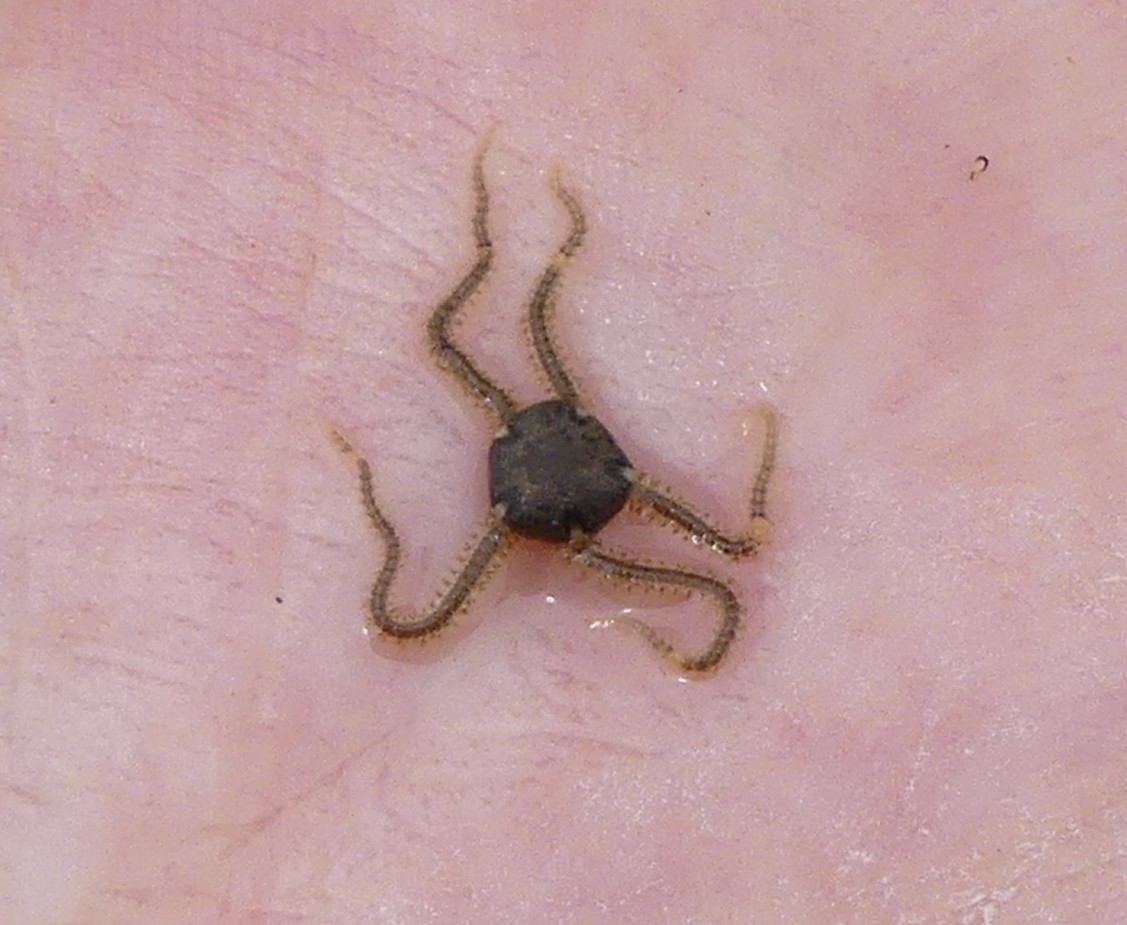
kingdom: Animalia
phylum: Echinodermata
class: Ophiuroidea
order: Amphilepidida
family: Amphiuridae
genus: Amphipholis
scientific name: Amphipholis squamata
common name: Brooding snake star
